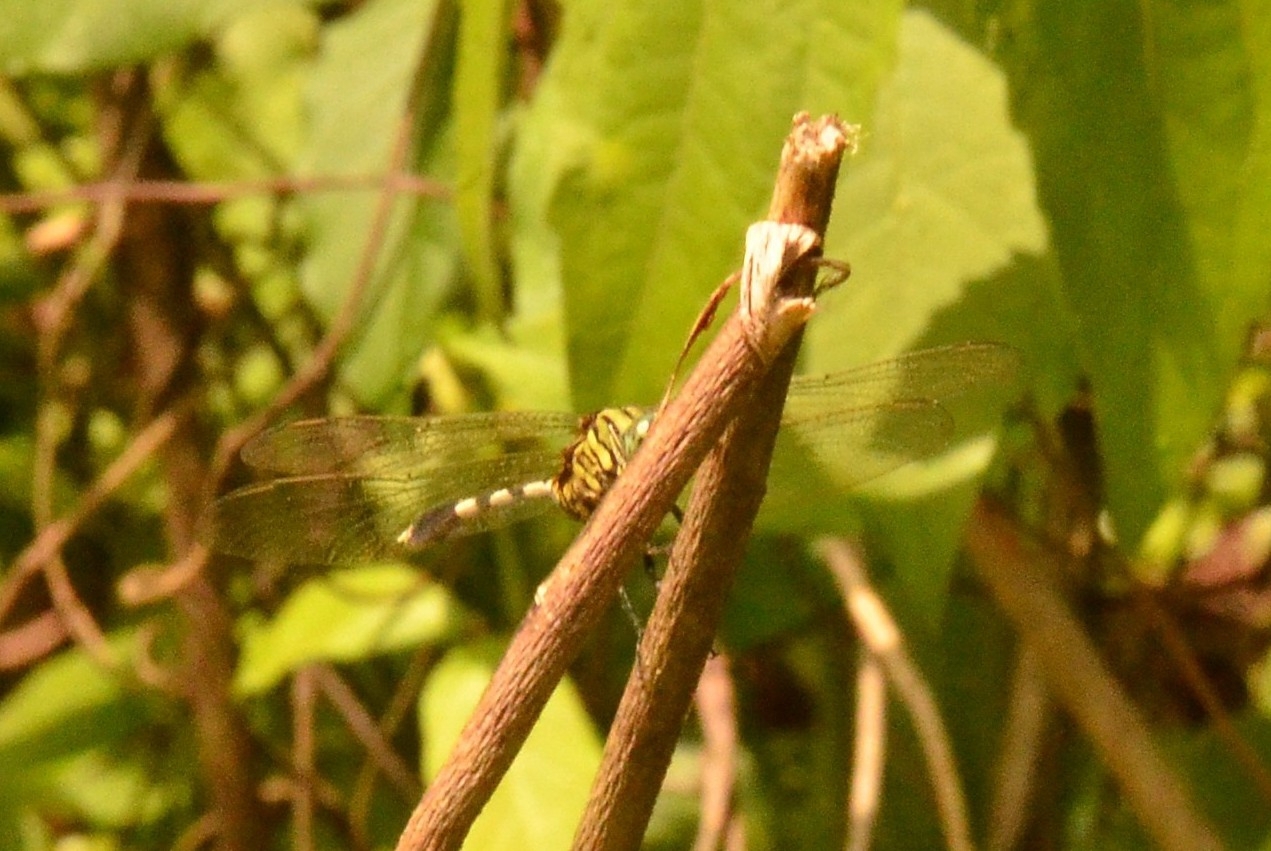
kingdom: Animalia
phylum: Arthropoda
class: Insecta
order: Odonata
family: Libellulidae
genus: Orthetrum
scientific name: Orthetrum sabina
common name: Slender skimmer
